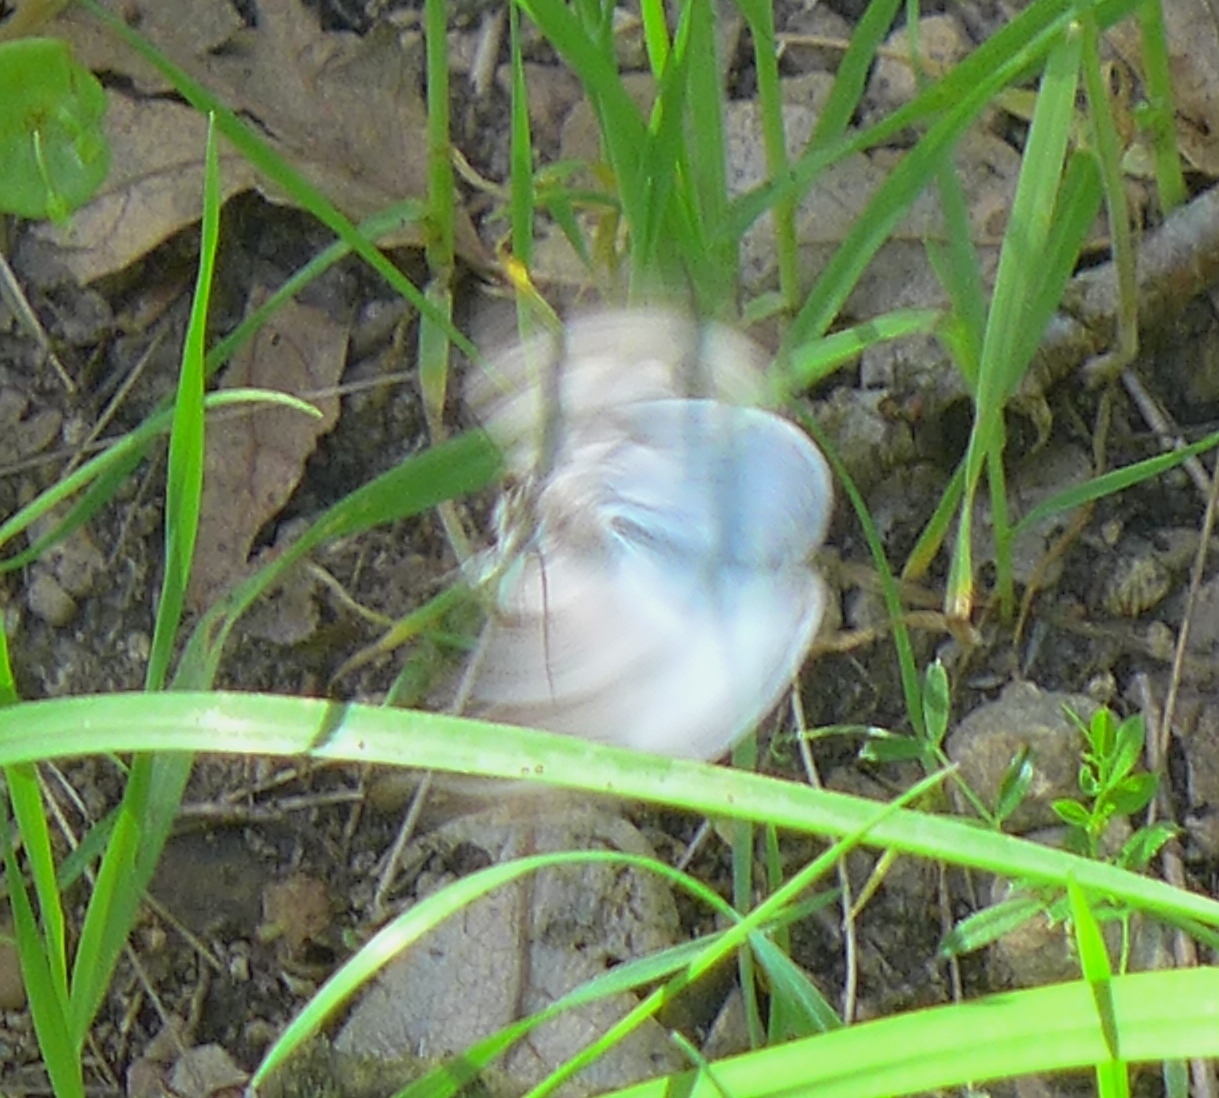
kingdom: Animalia
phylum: Arthropoda
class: Insecta
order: Lepidoptera
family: Erebidae
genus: Caenurgina
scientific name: Caenurgina caerulea
